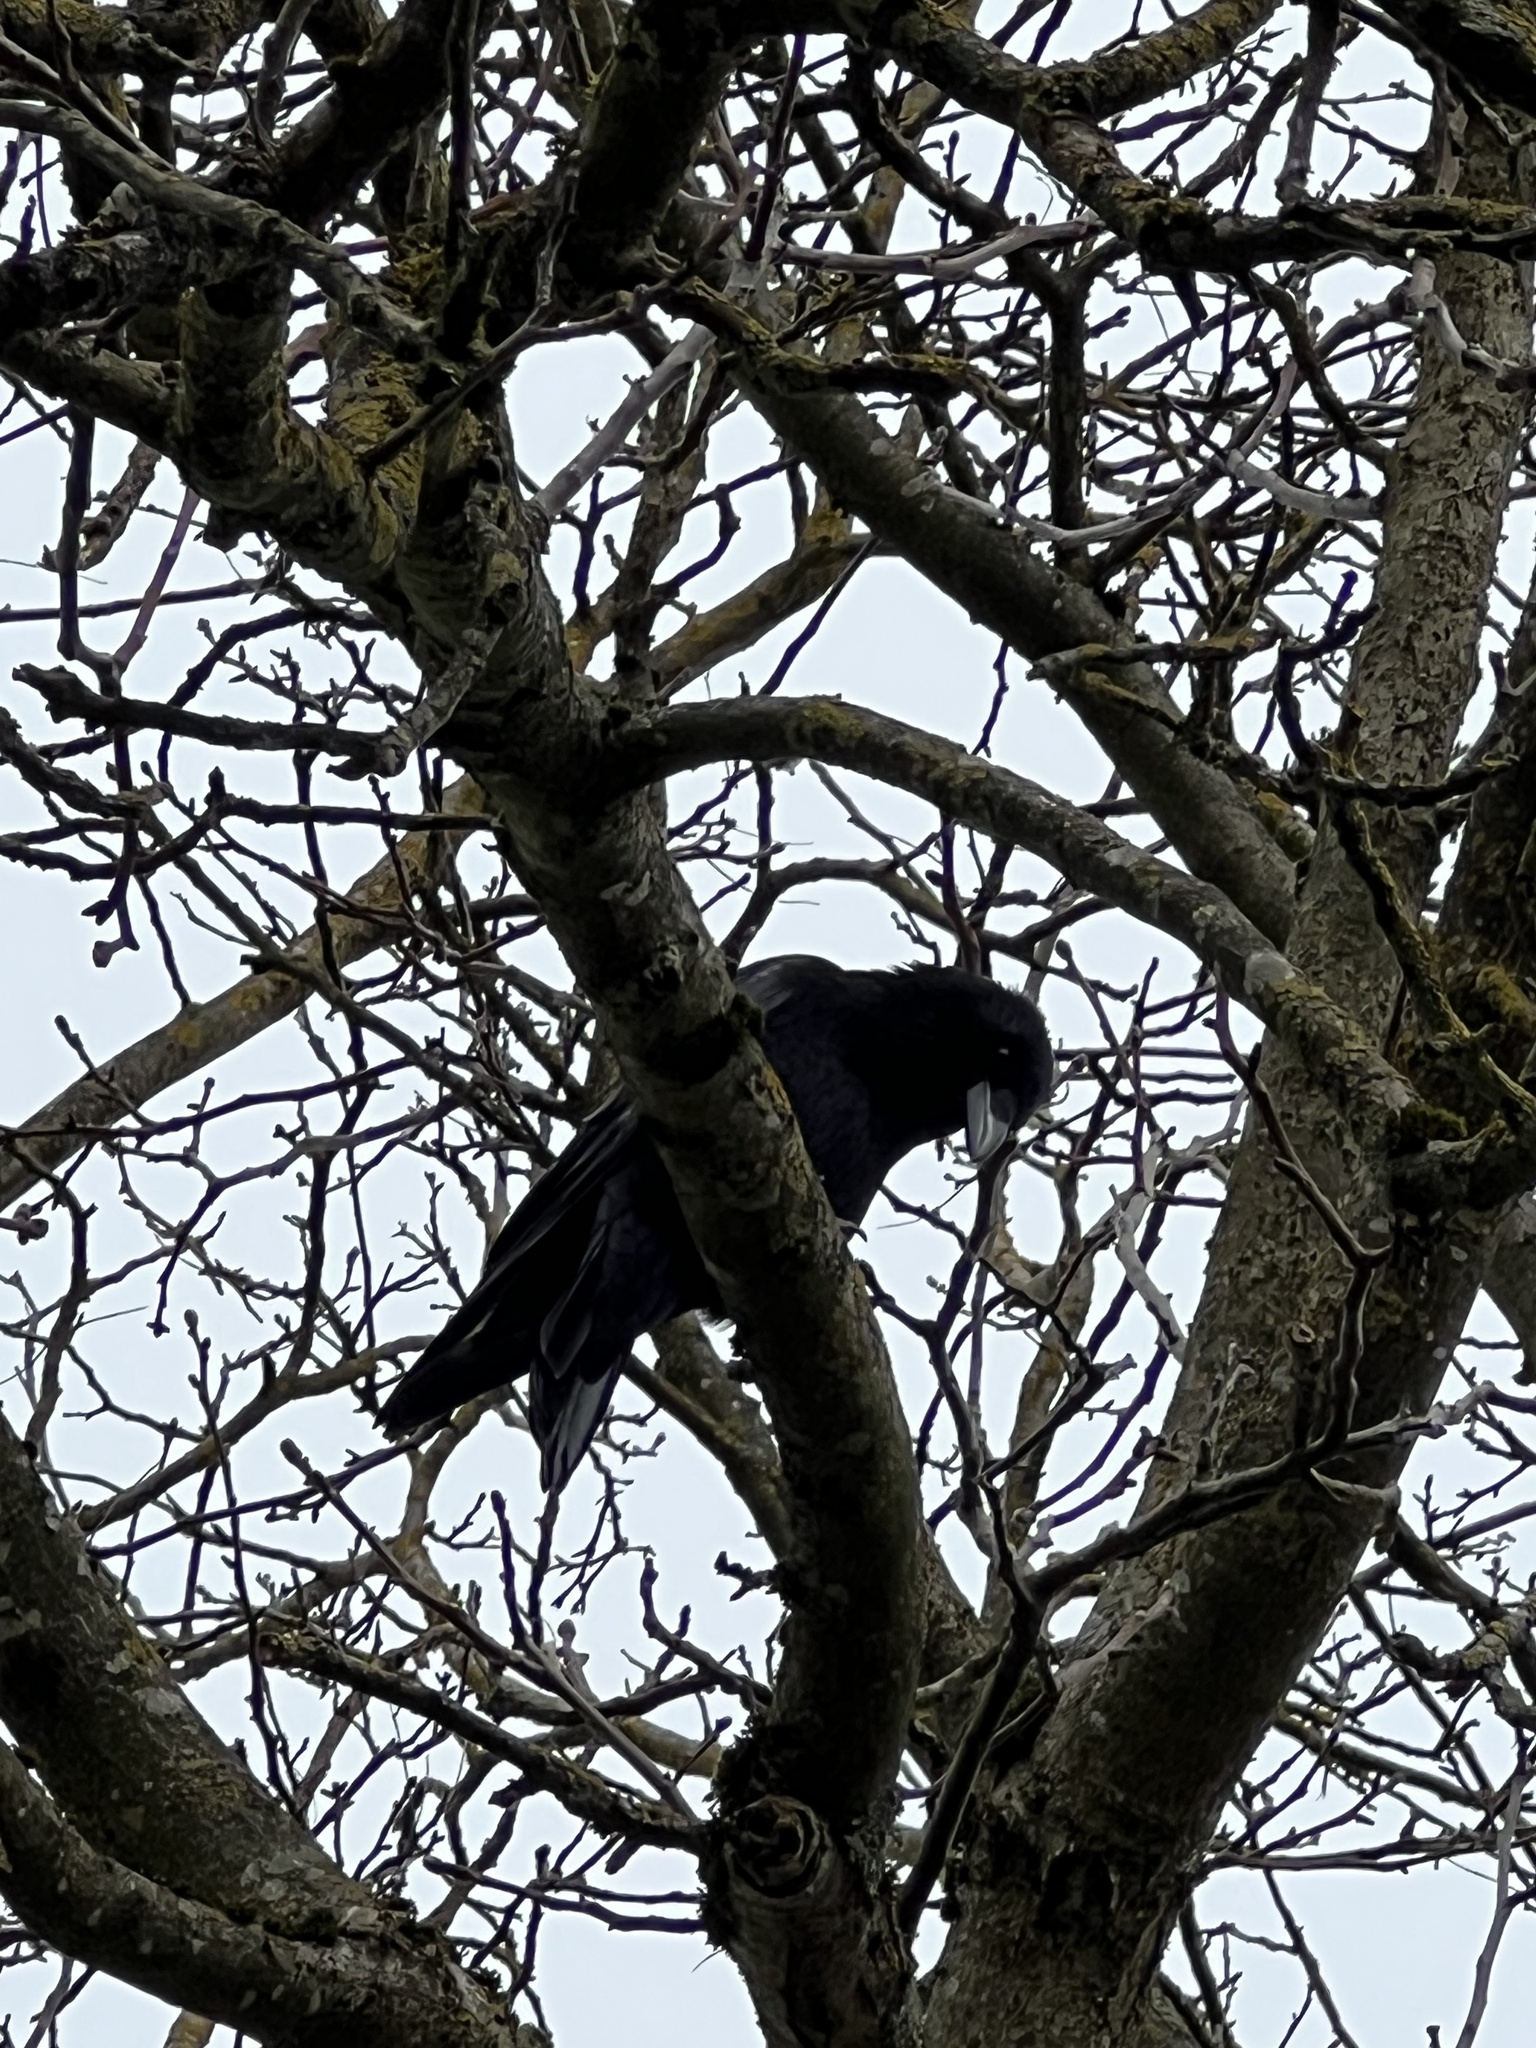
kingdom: Animalia
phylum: Chordata
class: Aves
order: Passeriformes
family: Corvidae
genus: Corvus
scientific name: Corvus corone
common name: Carrion crow
